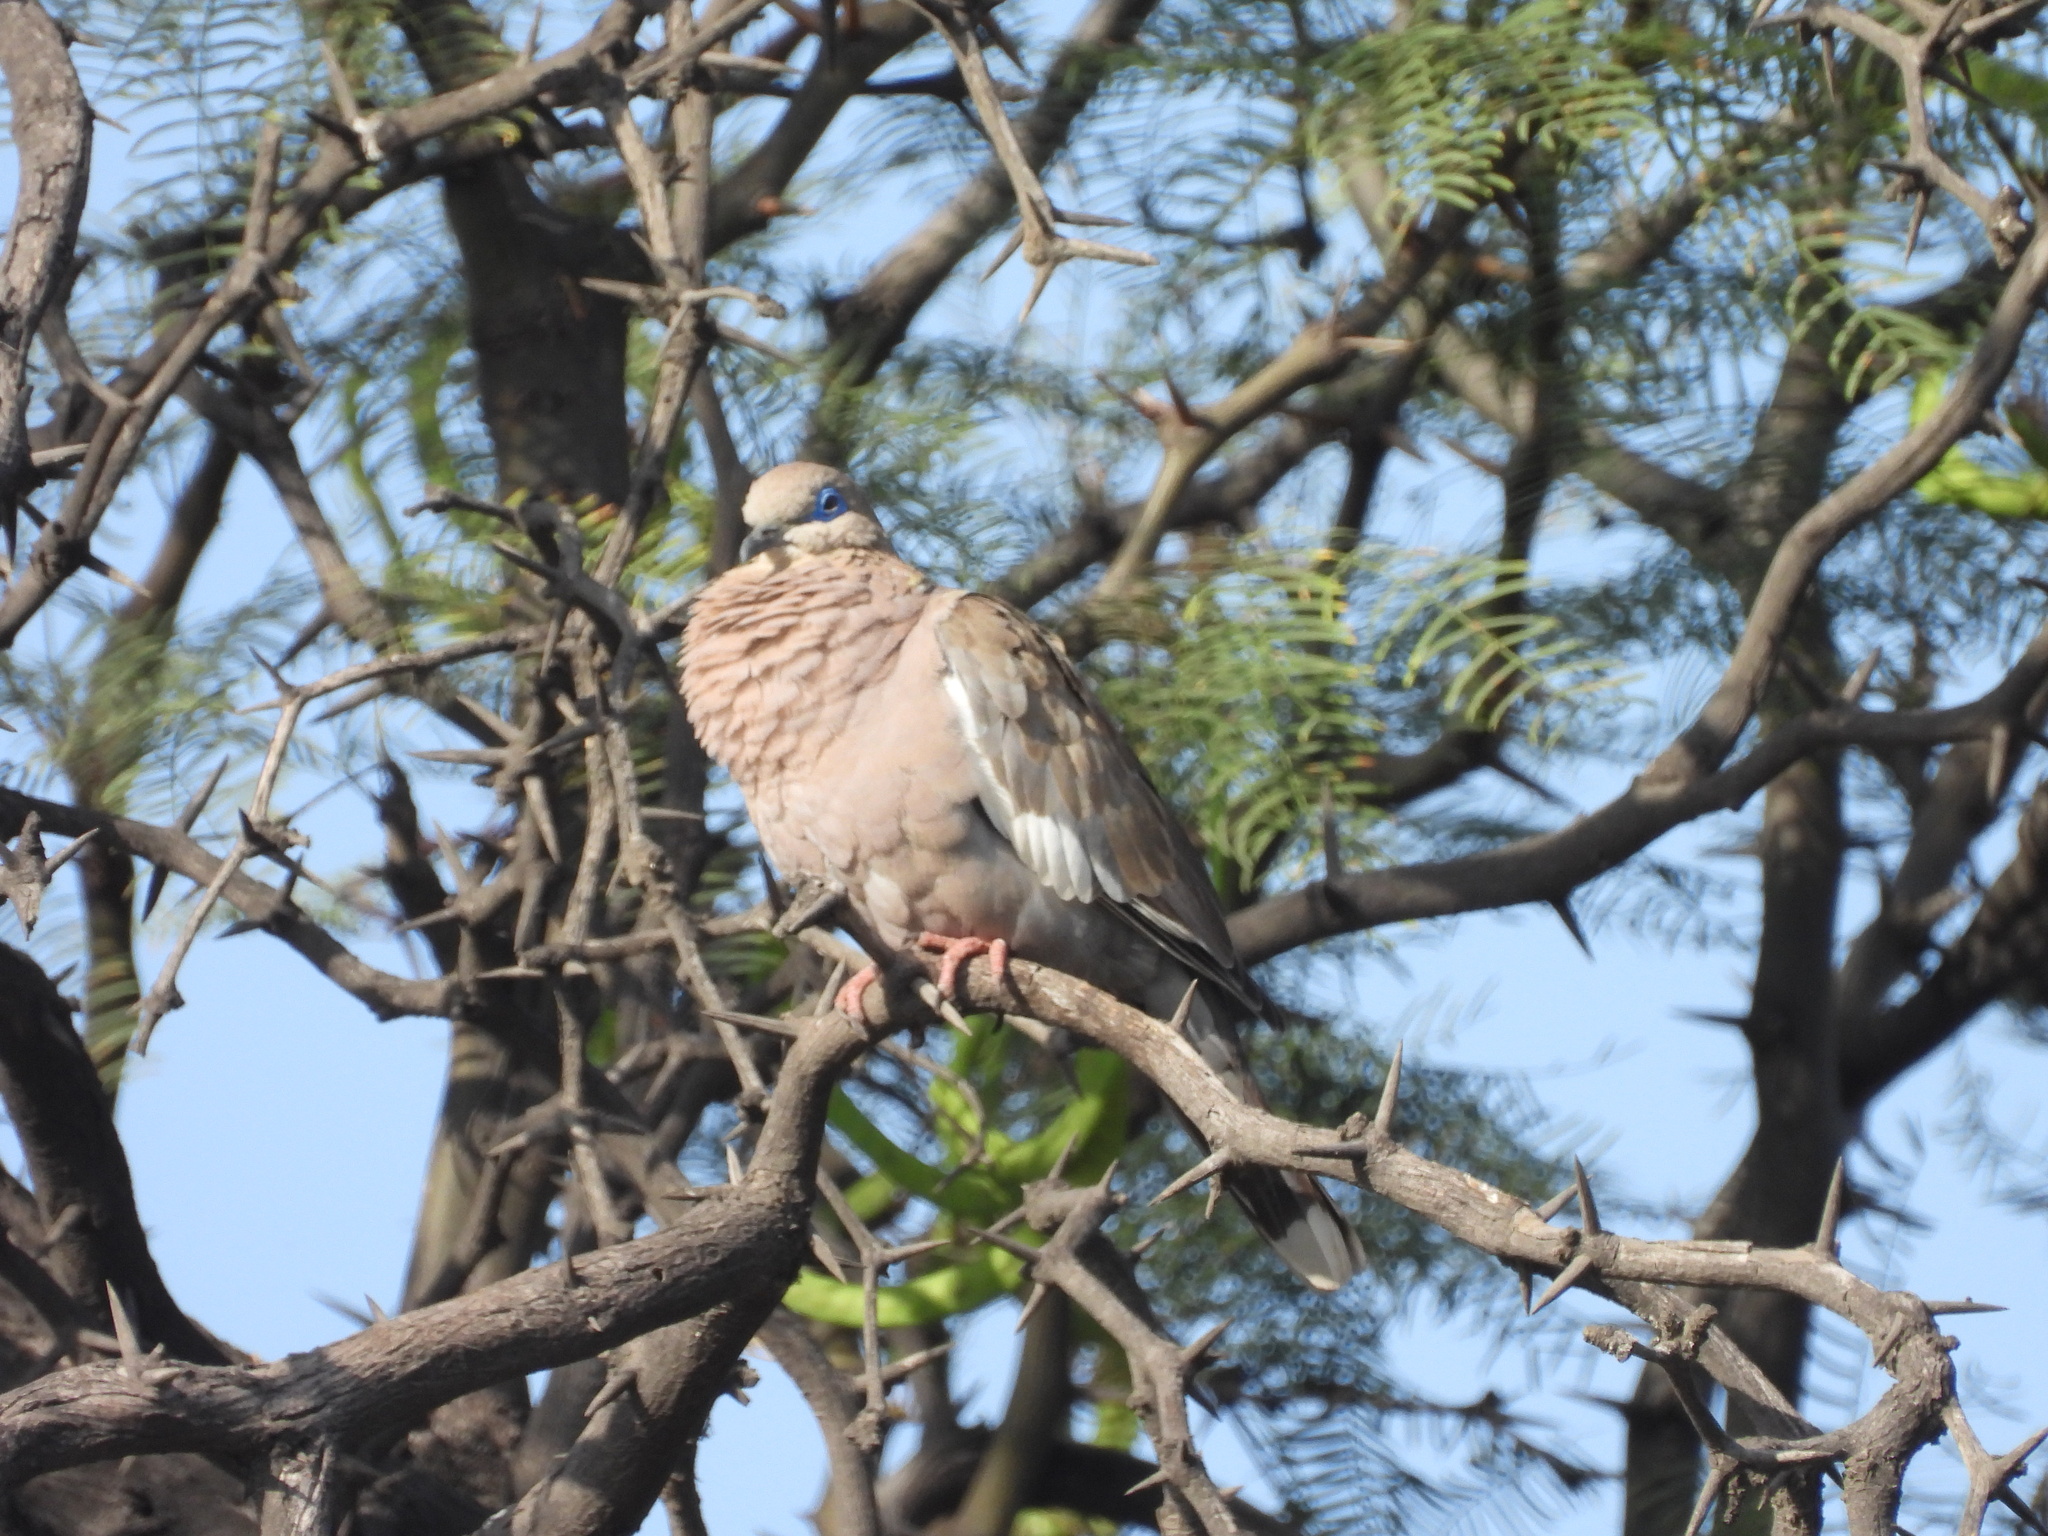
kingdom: Animalia
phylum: Chordata
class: Aves
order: Columbiformes
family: Columbidae
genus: Zenaida
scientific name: Zenaida meloda
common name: West peruvian dove
